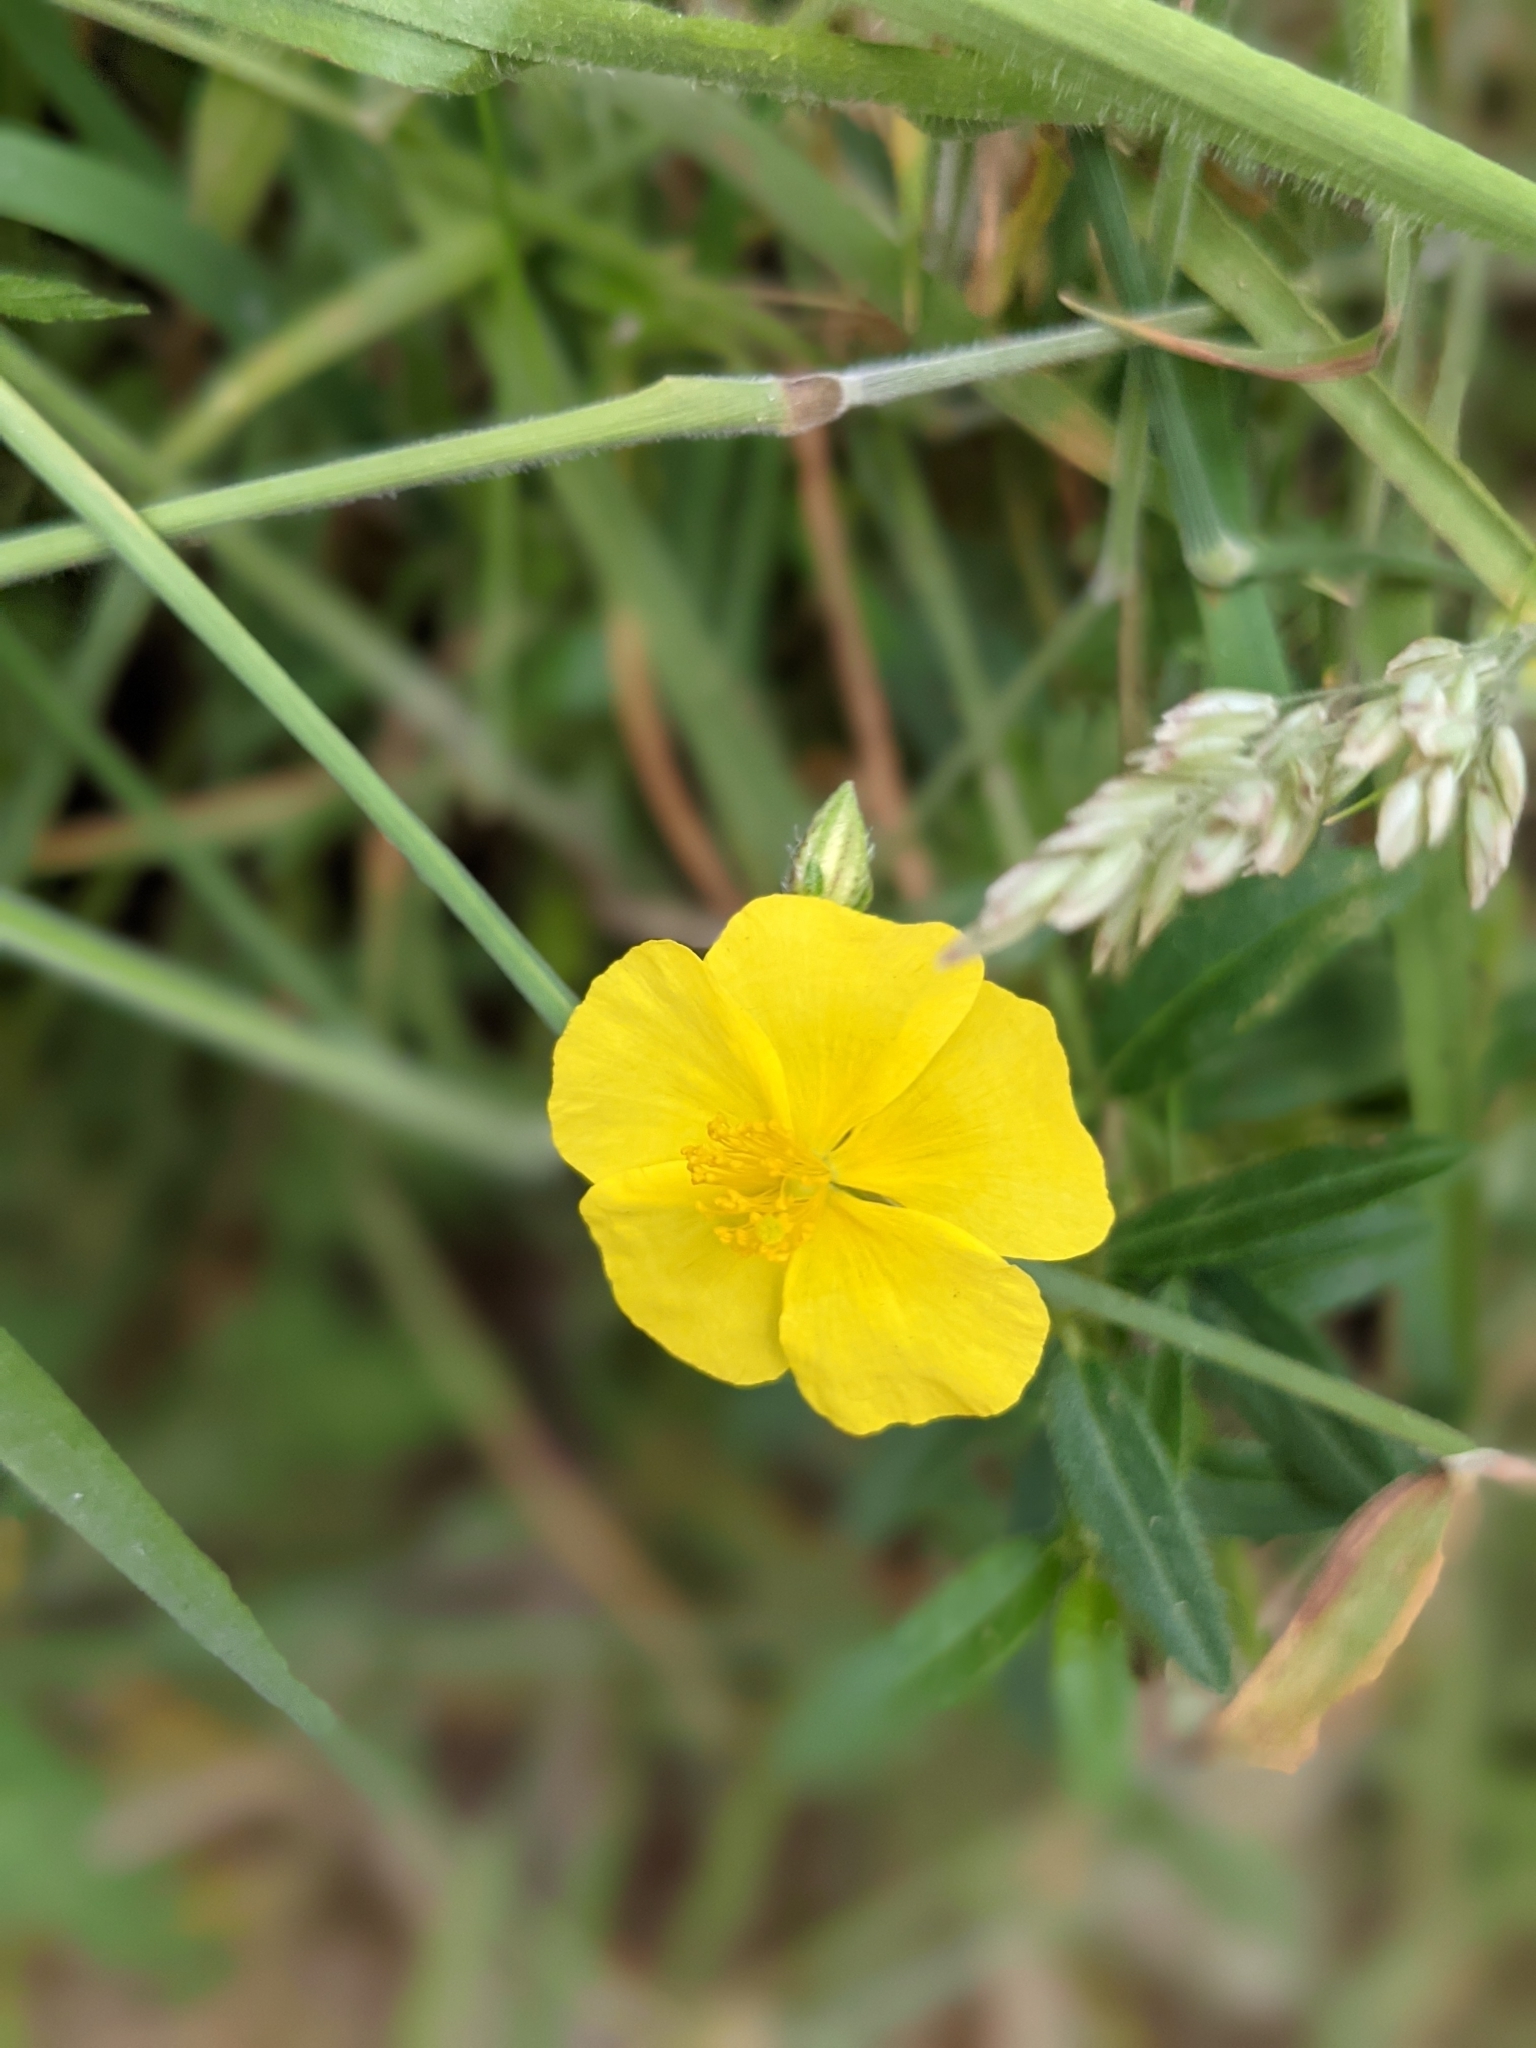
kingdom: Plantae
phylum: Tracheophyta
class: Magnoliopsida
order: Malvales
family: Cistaceae
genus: Helianthemum
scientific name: Helianthemum nummularium
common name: Common rock-rose
